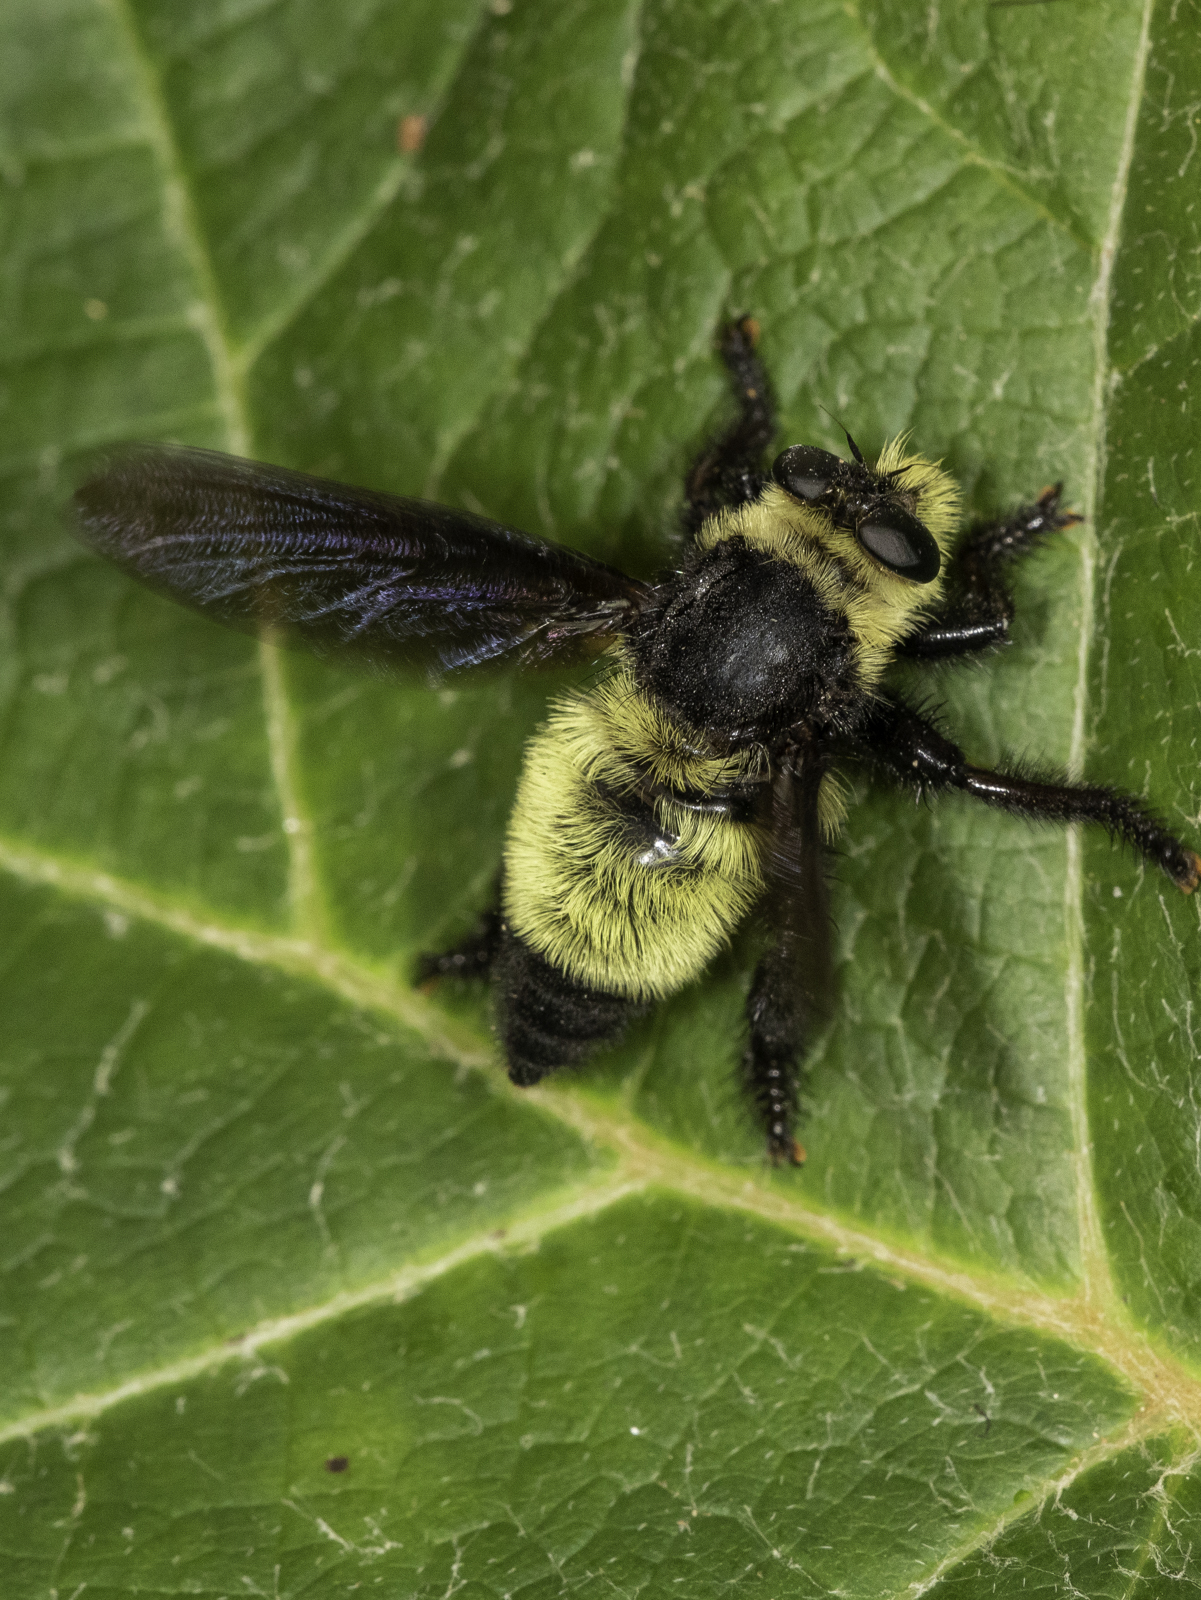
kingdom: Animalia
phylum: Arthropoda
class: Insecta
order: Diptera
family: Asilidae
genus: Mallophora
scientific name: Mallophora orcina
